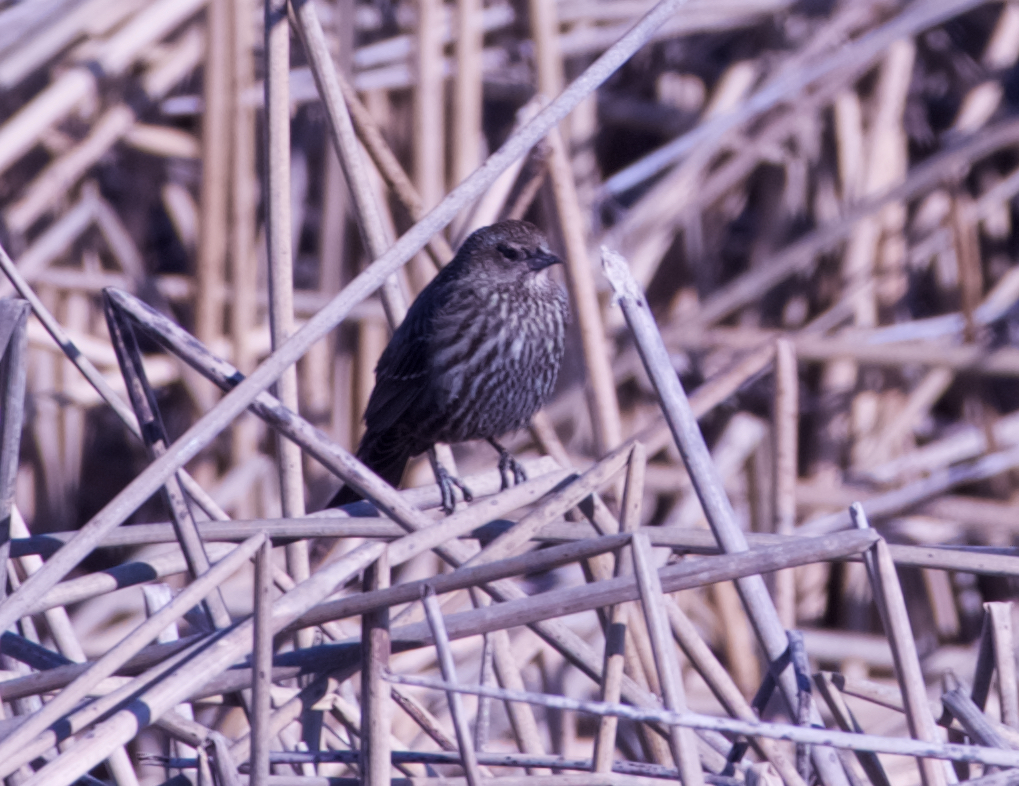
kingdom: Animalia
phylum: Chordata
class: Aves
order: Passeriformes
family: Icteridae
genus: Agelaius
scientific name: Agelaius phoeniceus
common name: Red-winged blackbird
